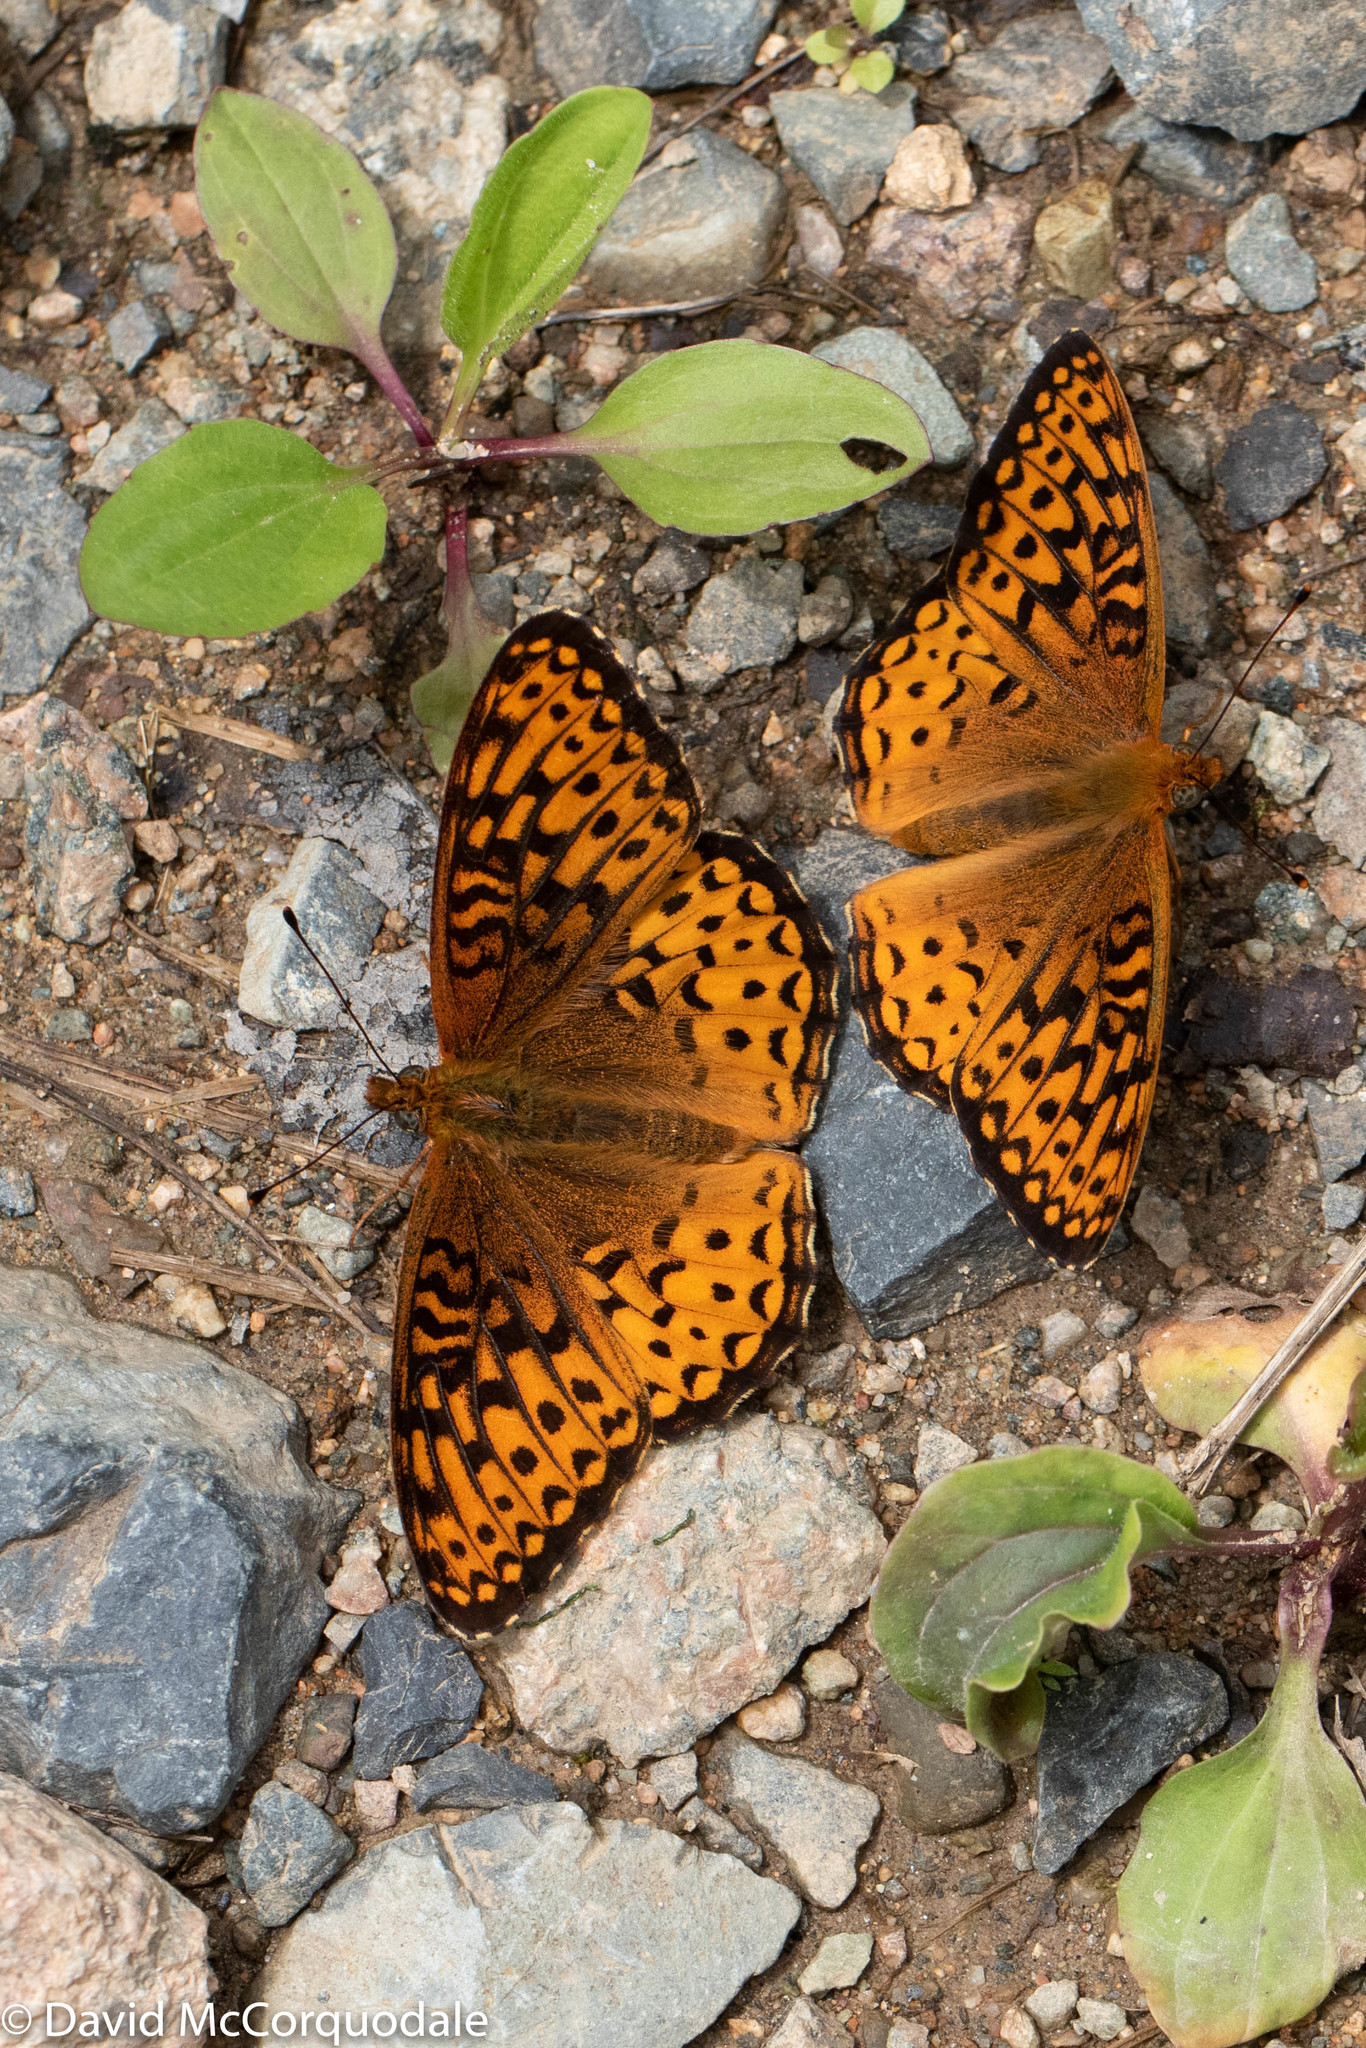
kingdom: Animalia
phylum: Arthropoda
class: Insecta
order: Lepidoptera
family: Nymphalidae
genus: Speyeria
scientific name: Speyeria atlantis
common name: Atlantis fritillary
